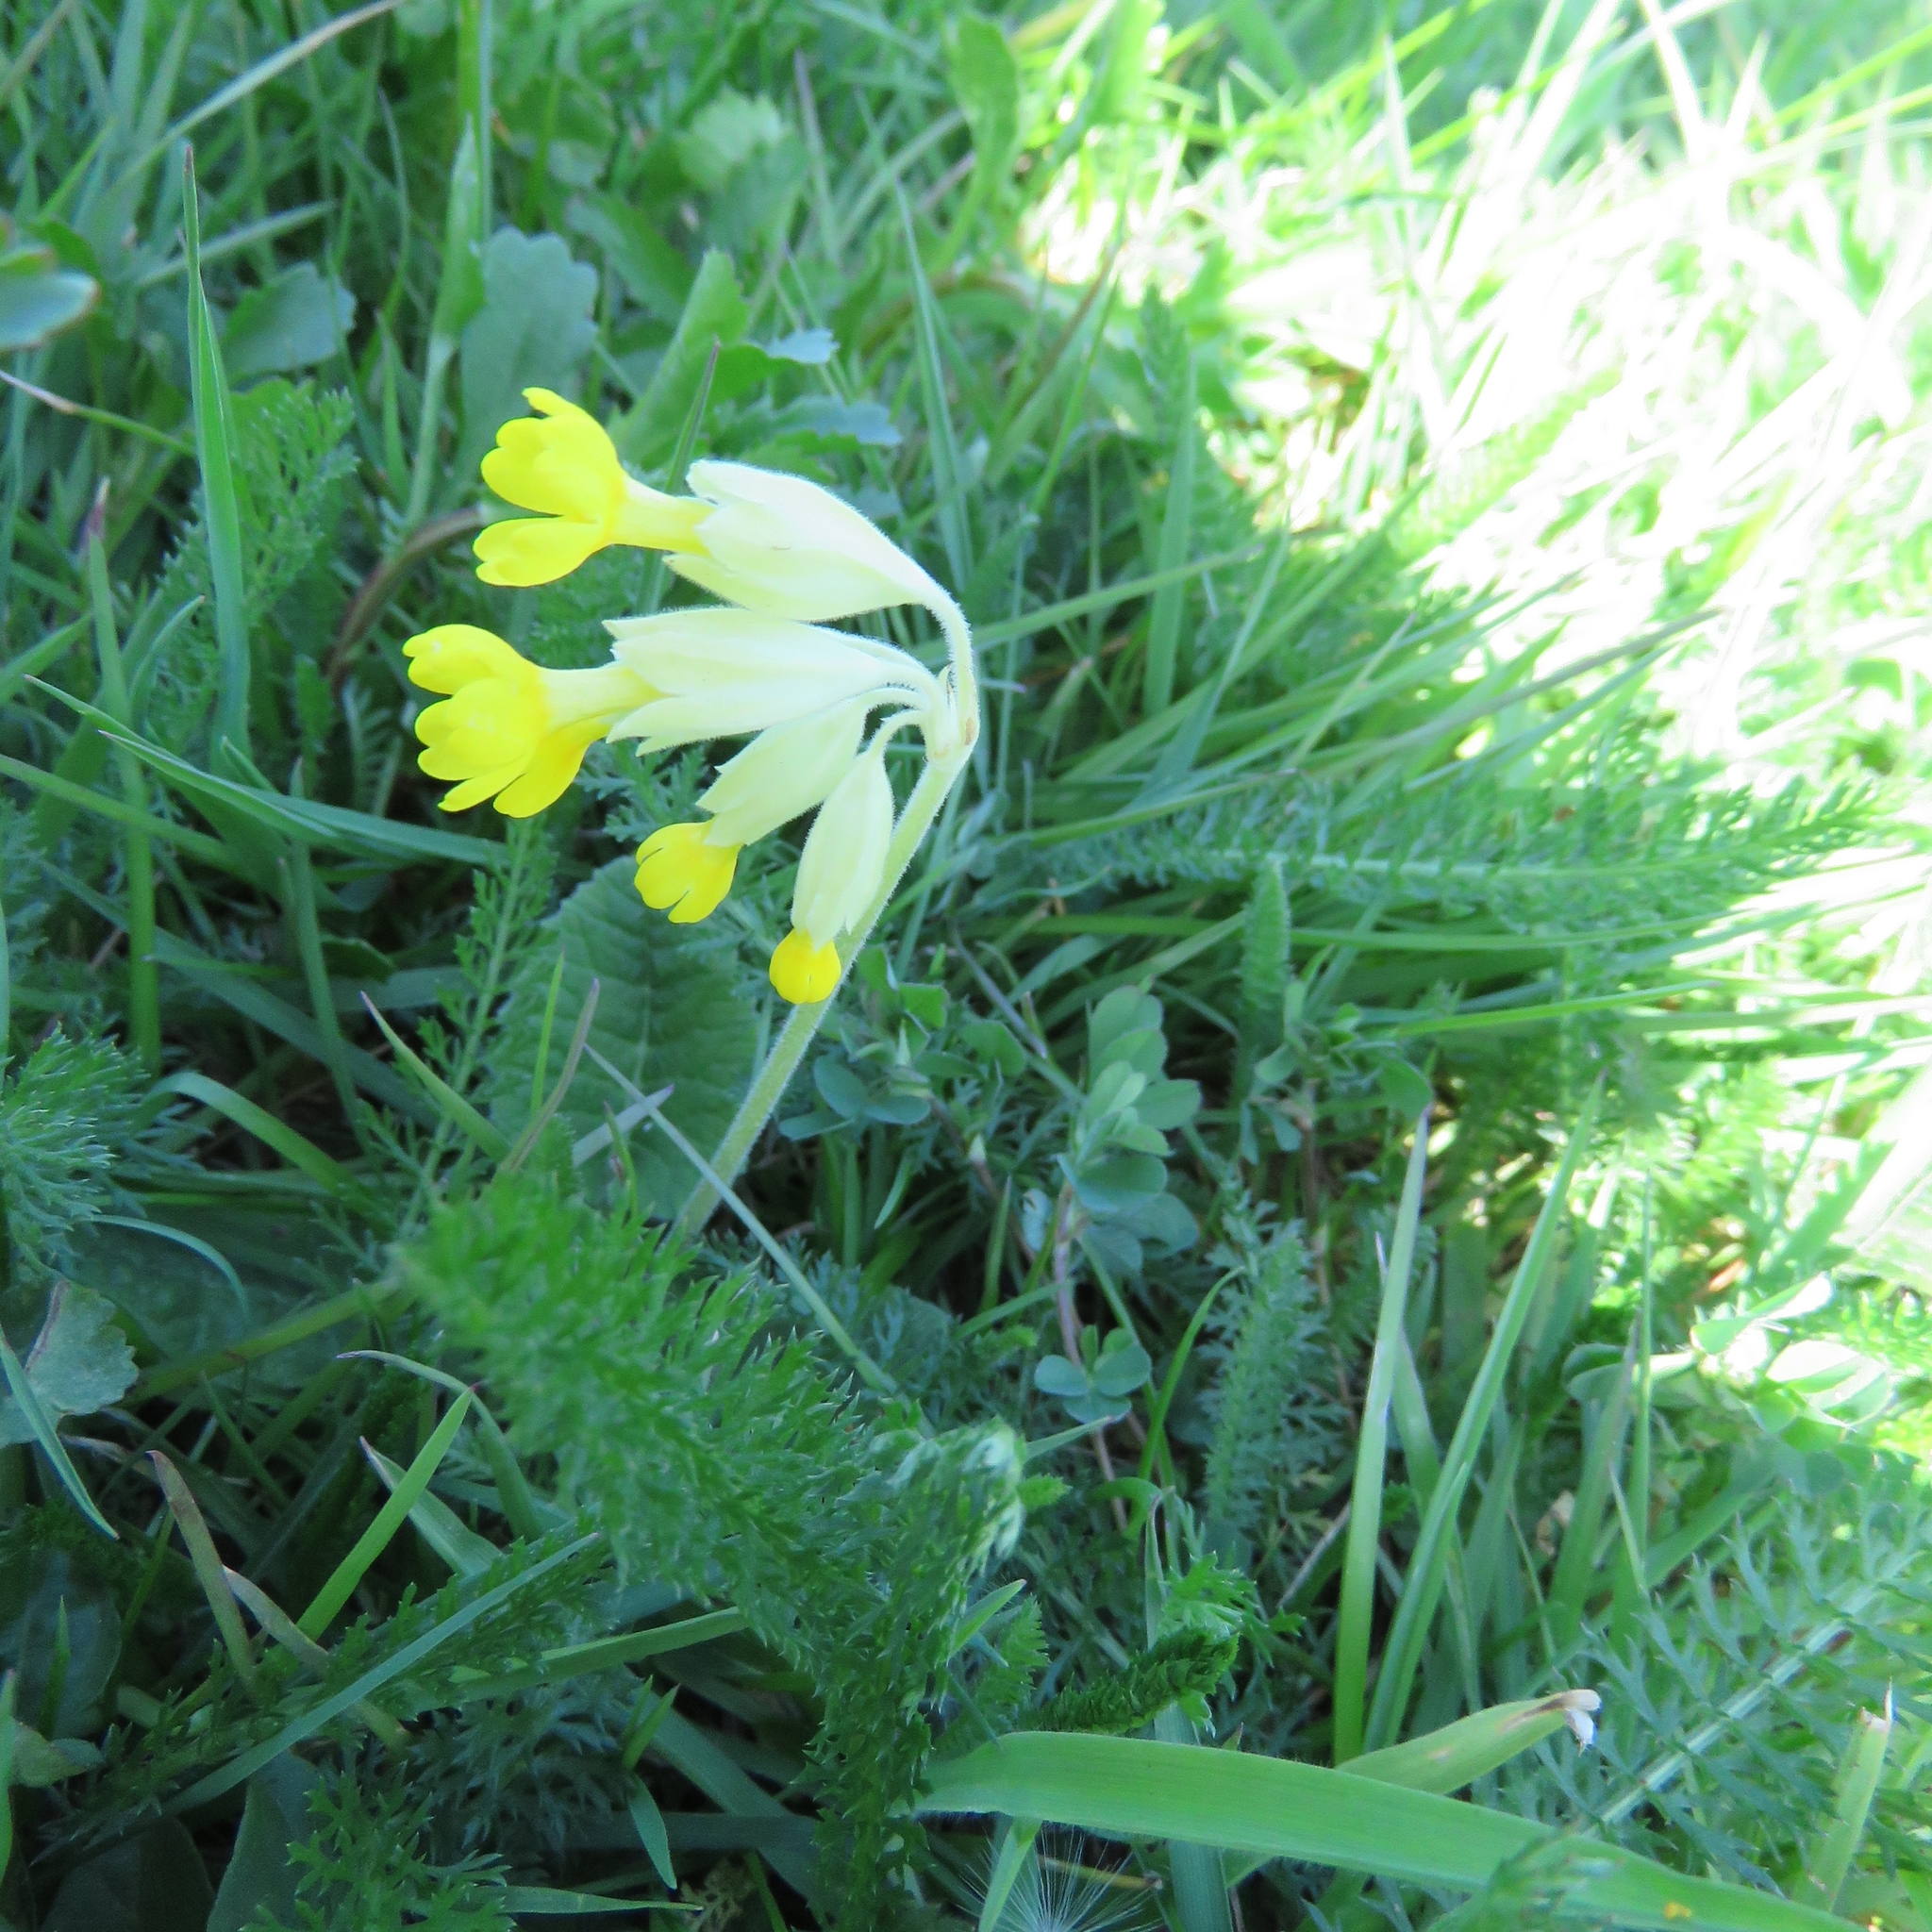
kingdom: Plantae
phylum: Tracheophyta
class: Magnoliopsida
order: Ericales
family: Primulaceae
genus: Primula
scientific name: Primula veris
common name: Cowslip
